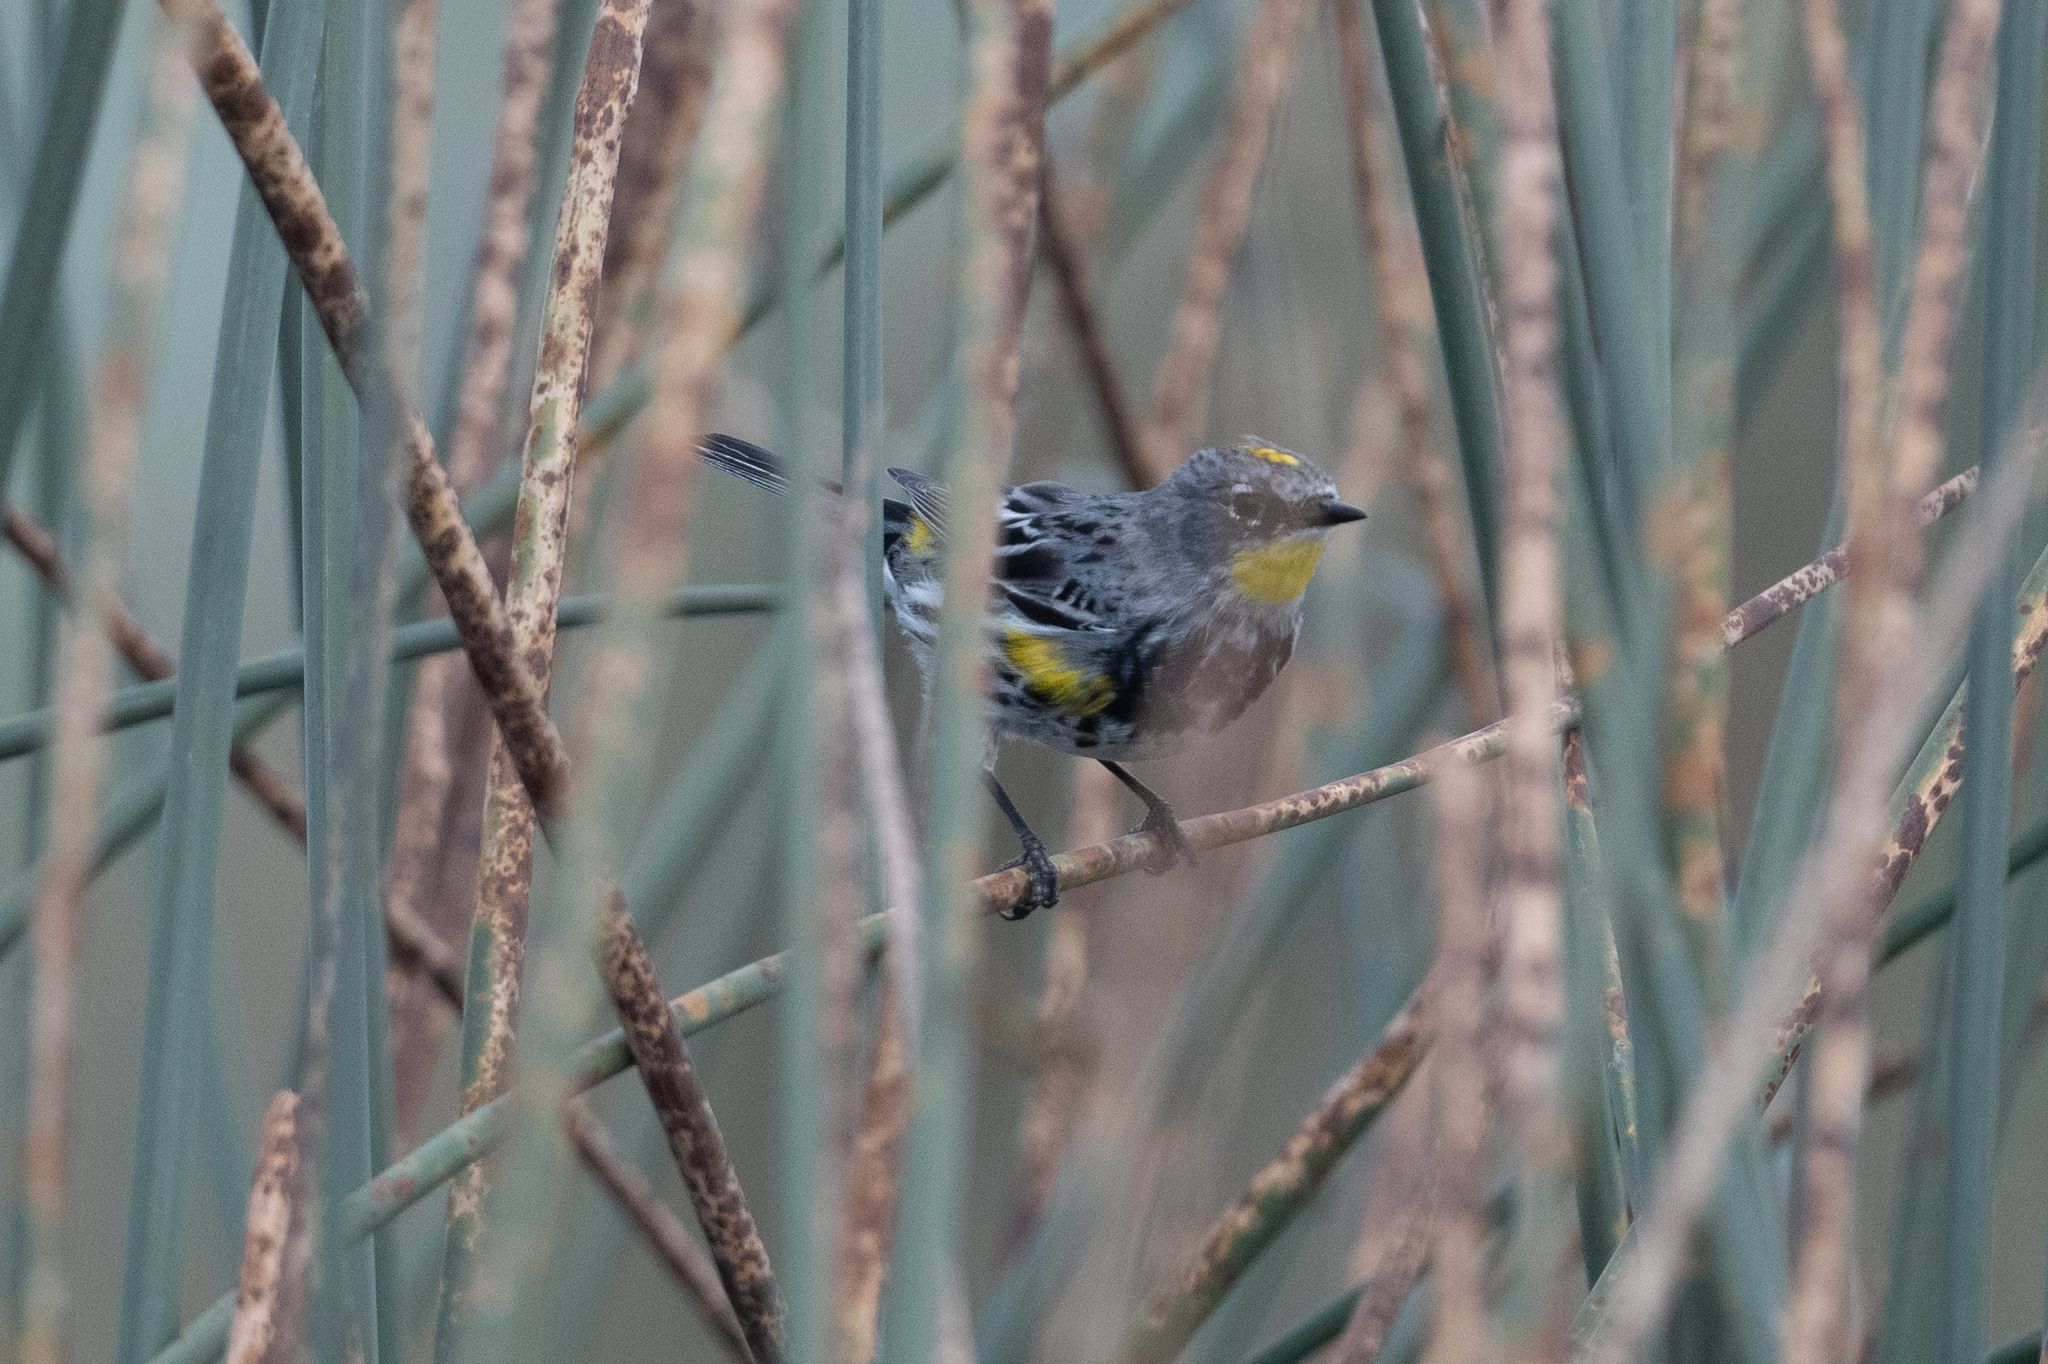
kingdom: Animalia
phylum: Chordata
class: Aves
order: Passeriformes
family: Parulidae
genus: Setophaga
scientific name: Setophaga coronata
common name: Myrtle warbler
